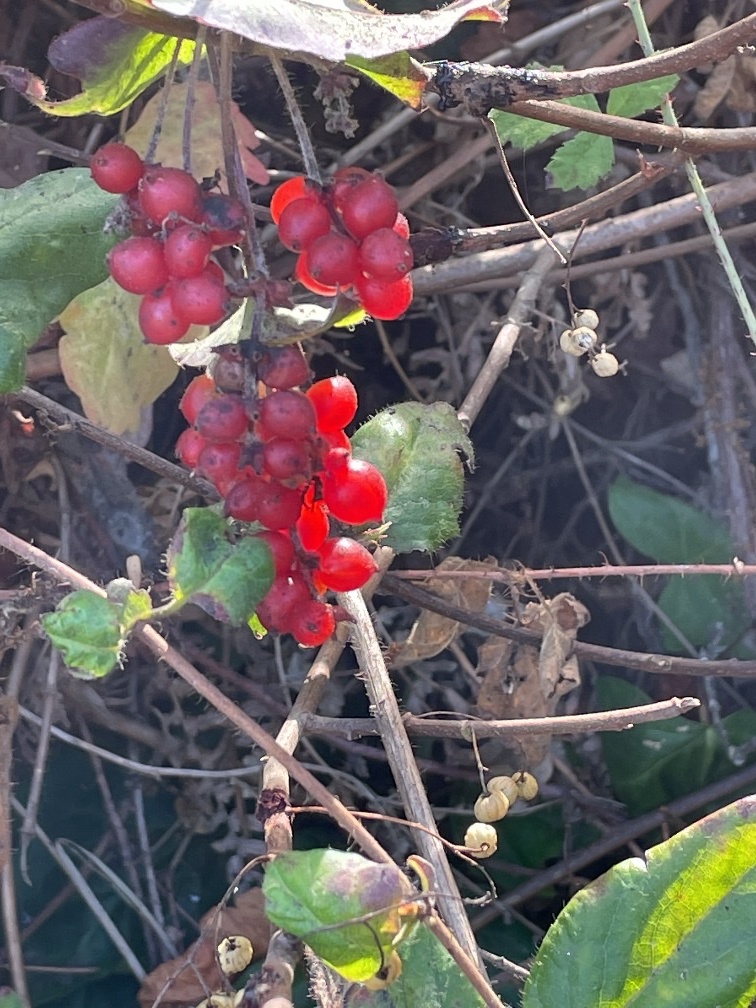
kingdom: Plantae
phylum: Tracheophyta
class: Magnoliopsida
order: Dipsacales
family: Caprifoliaceae
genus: Lonicera
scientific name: Lonicera hispidula
